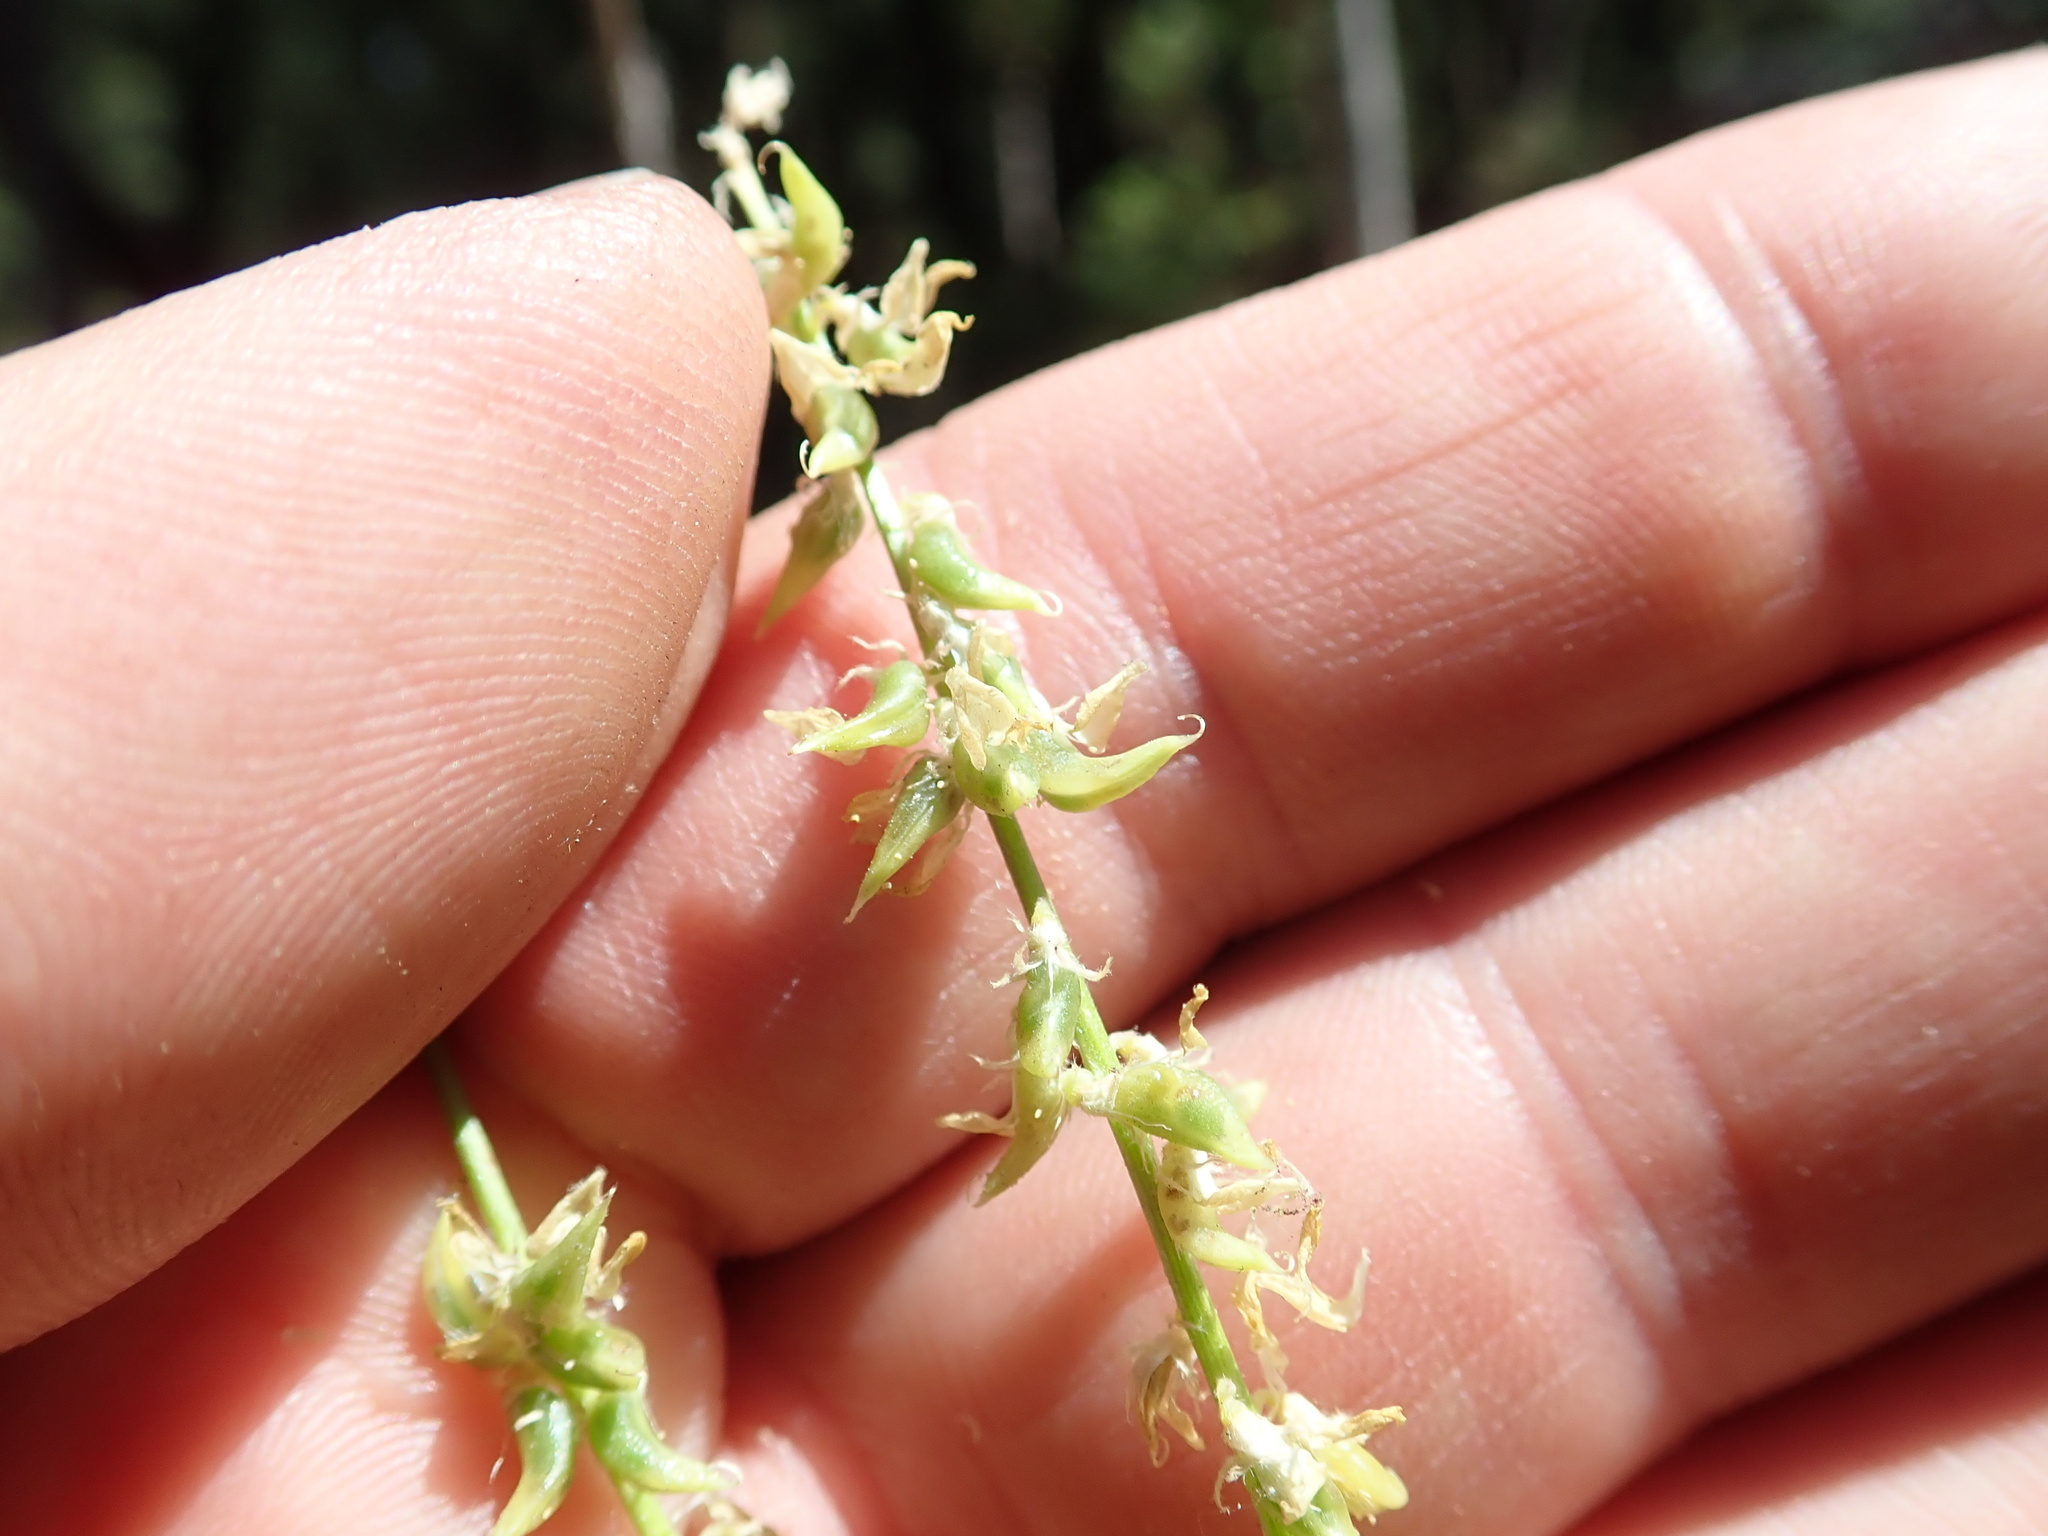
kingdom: Plantae
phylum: Tracheophyta
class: Magnoliopsida
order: Fabales
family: Fabaceae
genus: Astragalus
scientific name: Astragalus clevelandii
